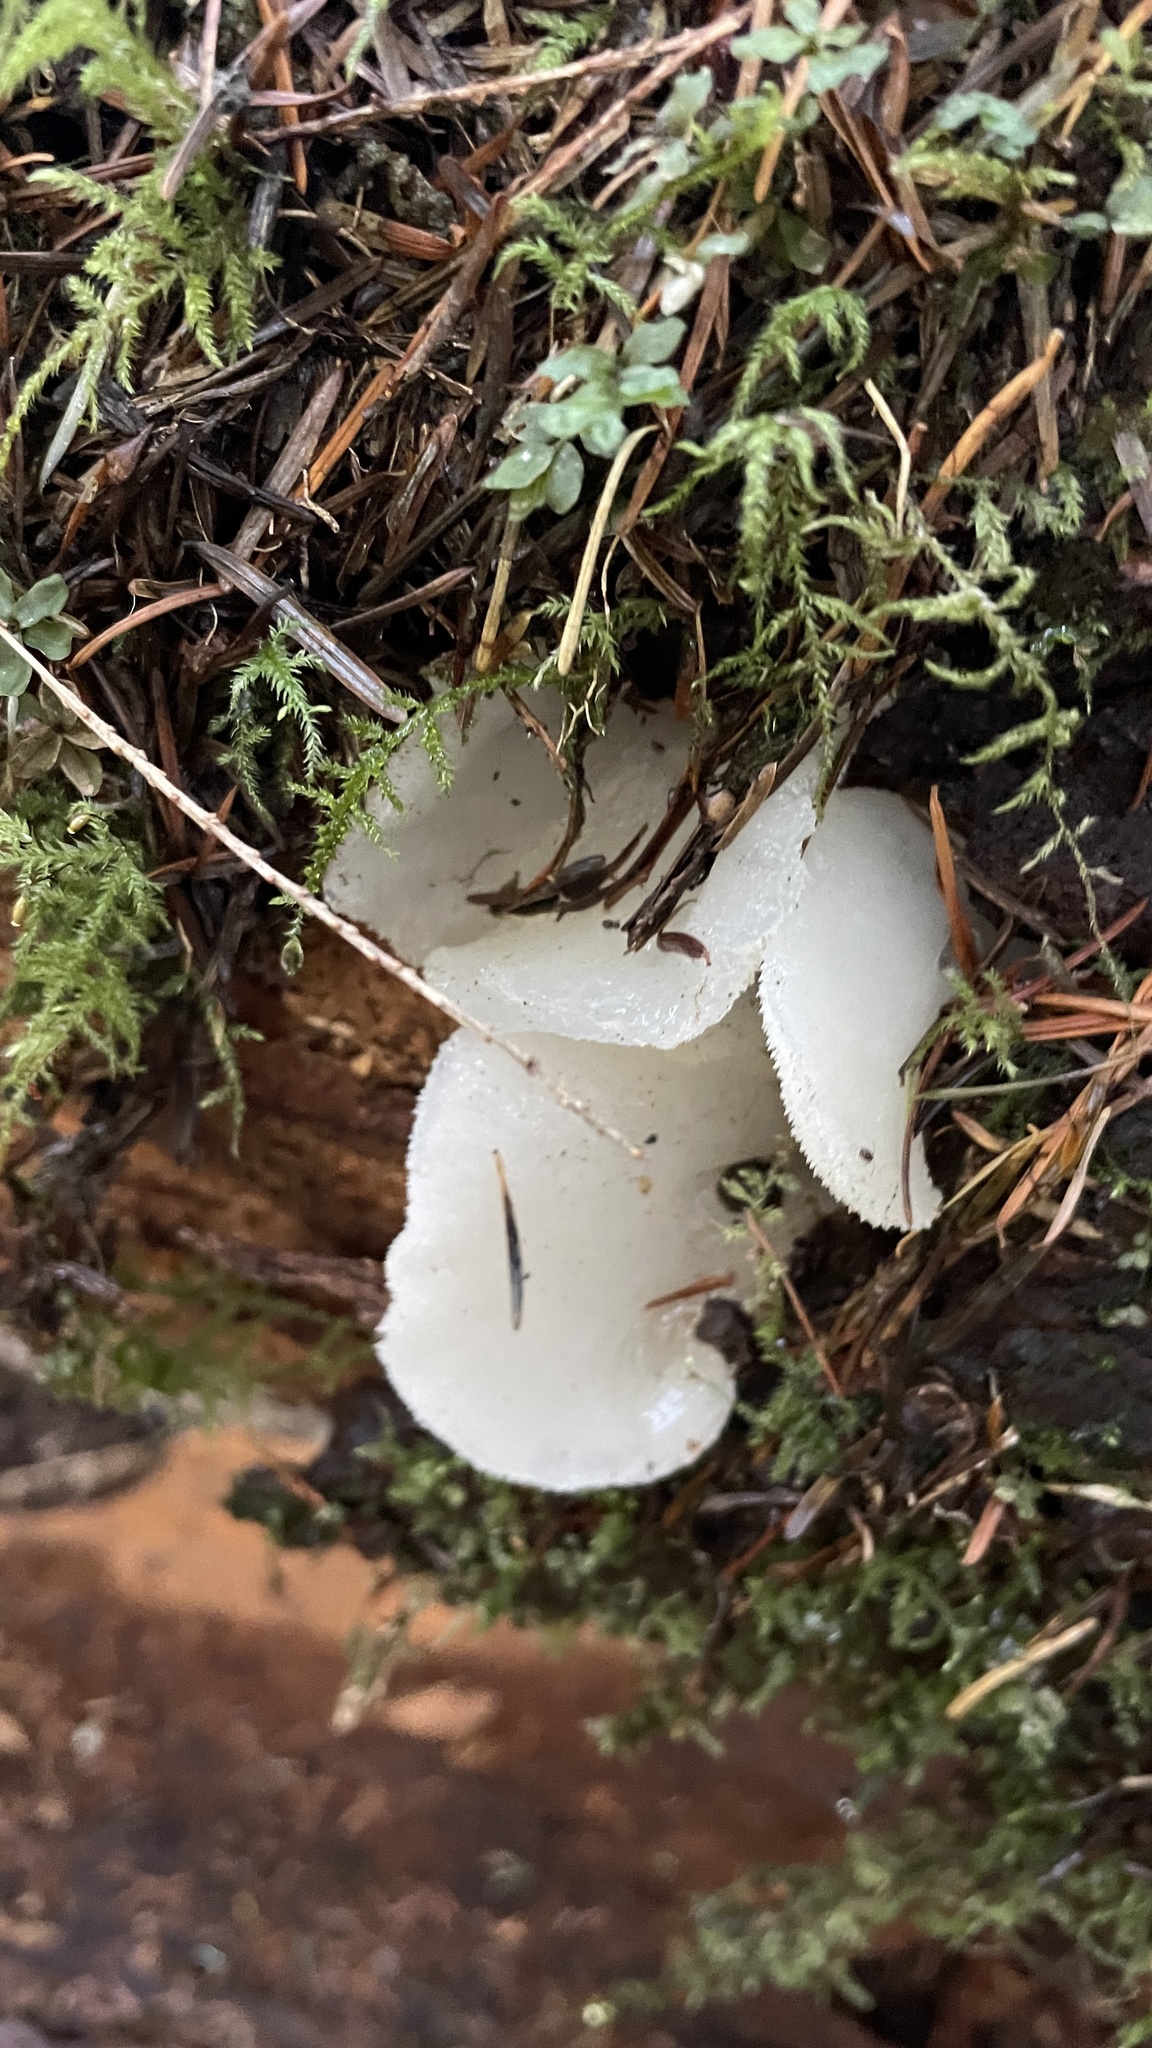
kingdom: Fungi
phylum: Basidiomycota
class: Agaricomycetes
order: Auriculariales
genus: Pseudohydnum
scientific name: Pseudohydnum gelatinosum
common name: Jelly tongue
